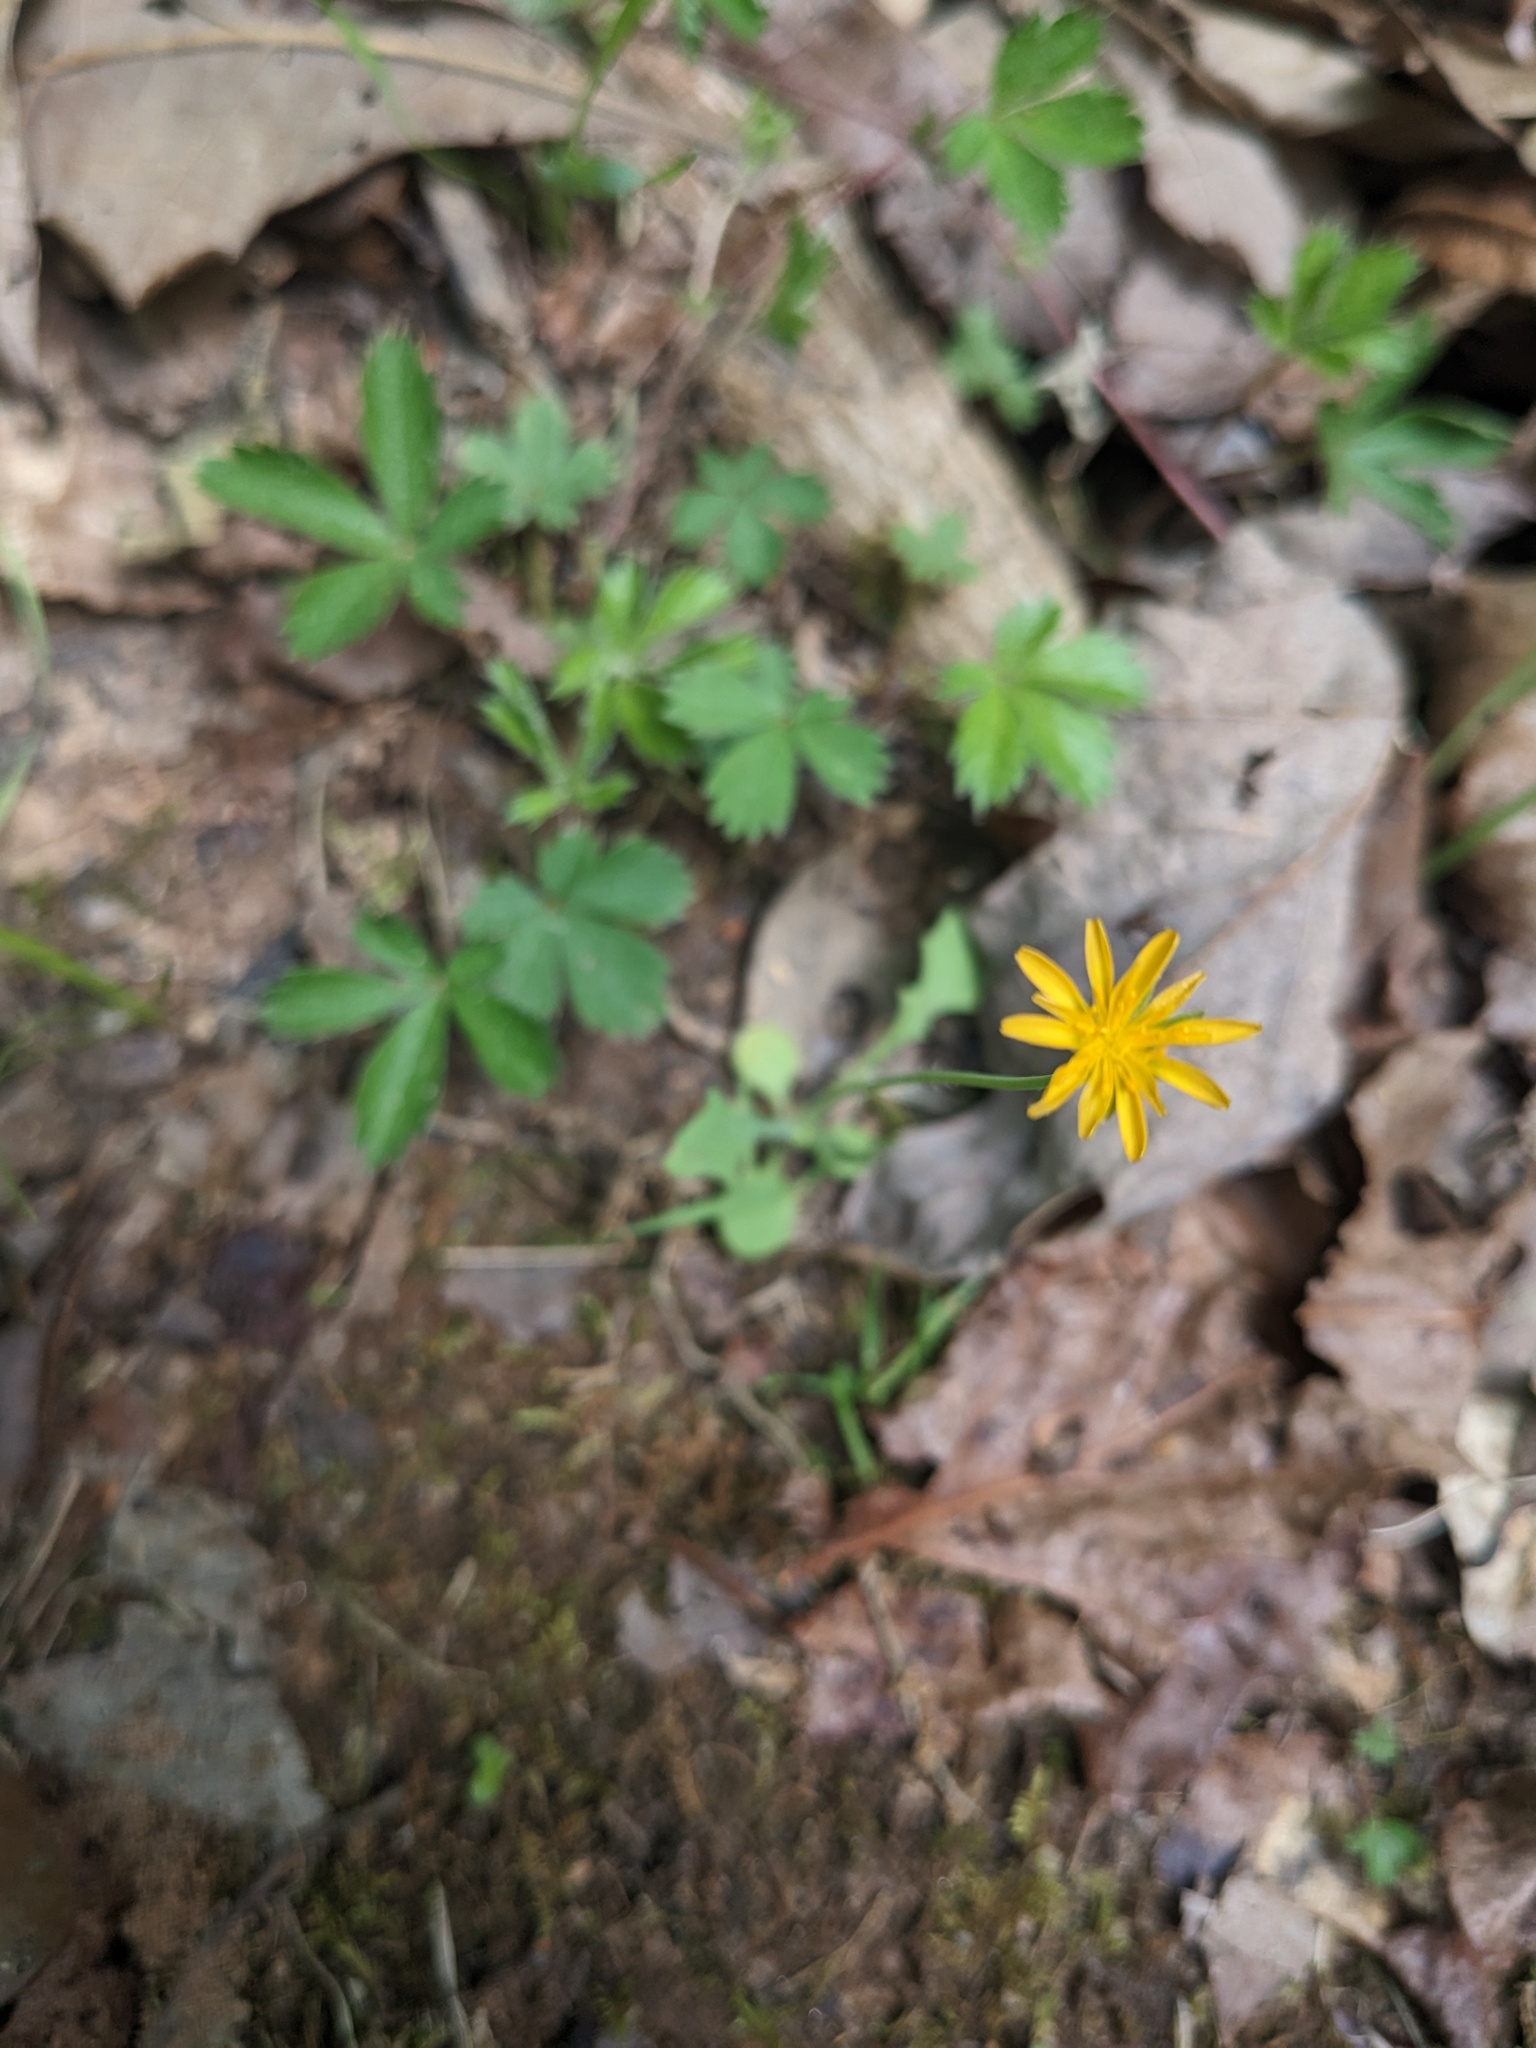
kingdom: Plantae
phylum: Tracheophyta
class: Magnoliopsida
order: Asterales
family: Asteraceae
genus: Krigia
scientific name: Krigia virginica
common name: Virginia dwarf-dandelion
